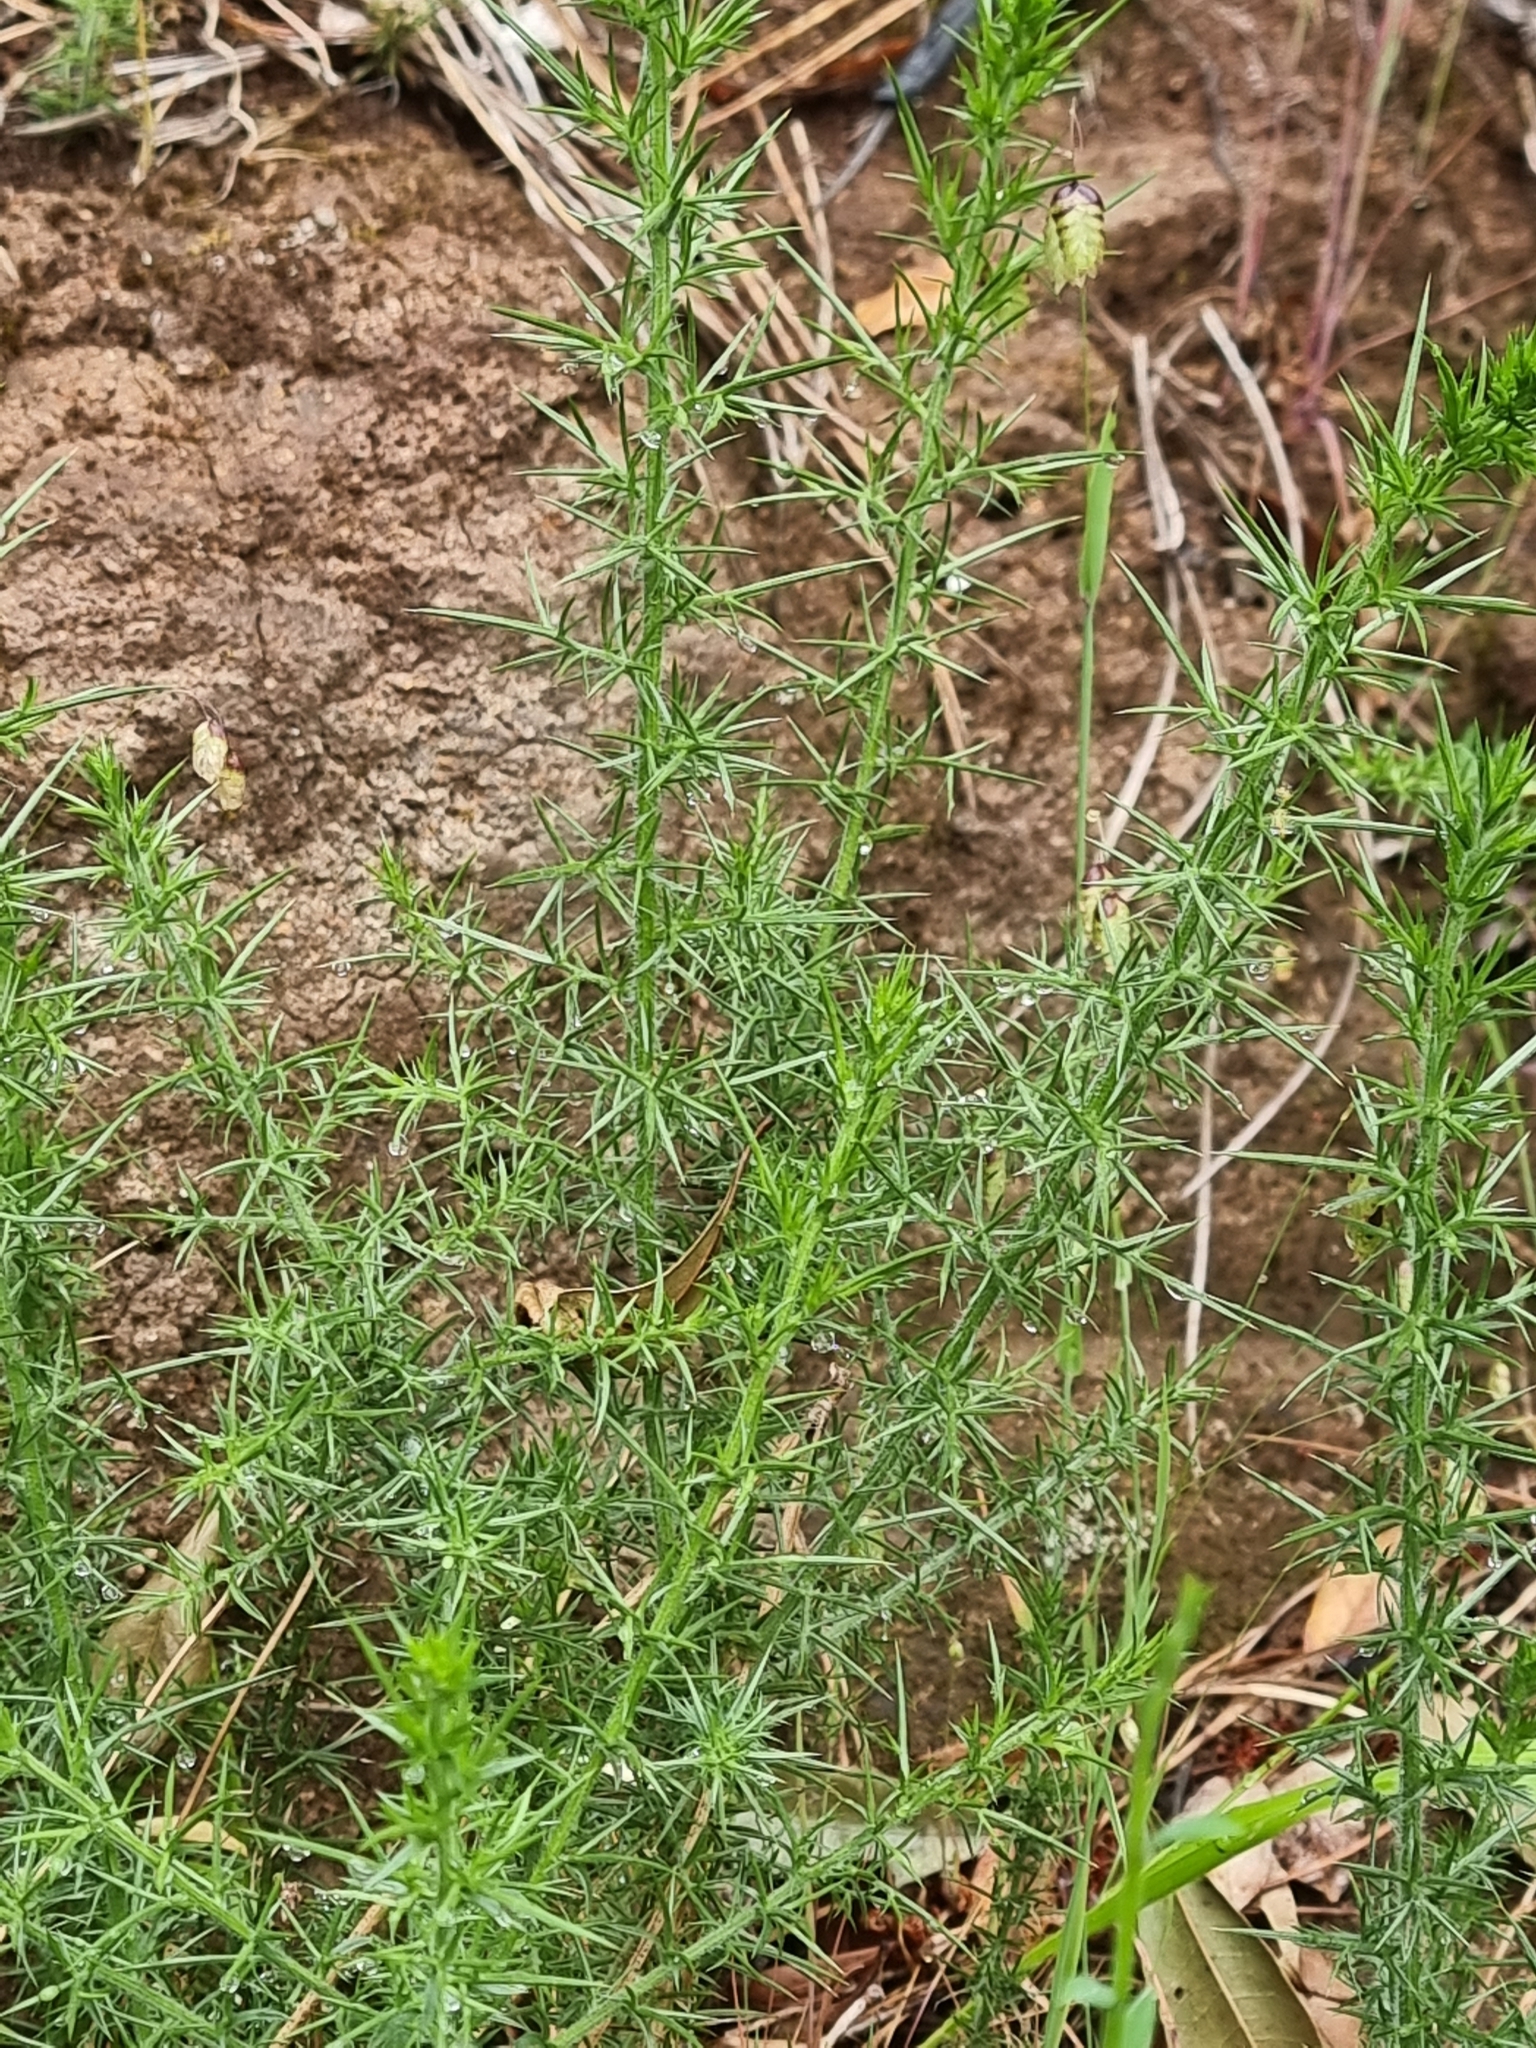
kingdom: Plantae
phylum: Tracheophyta
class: Magnoliopsida
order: Fabales
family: Fabaceae
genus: Ulex
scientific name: Ulex europaeus
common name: Common gorse
